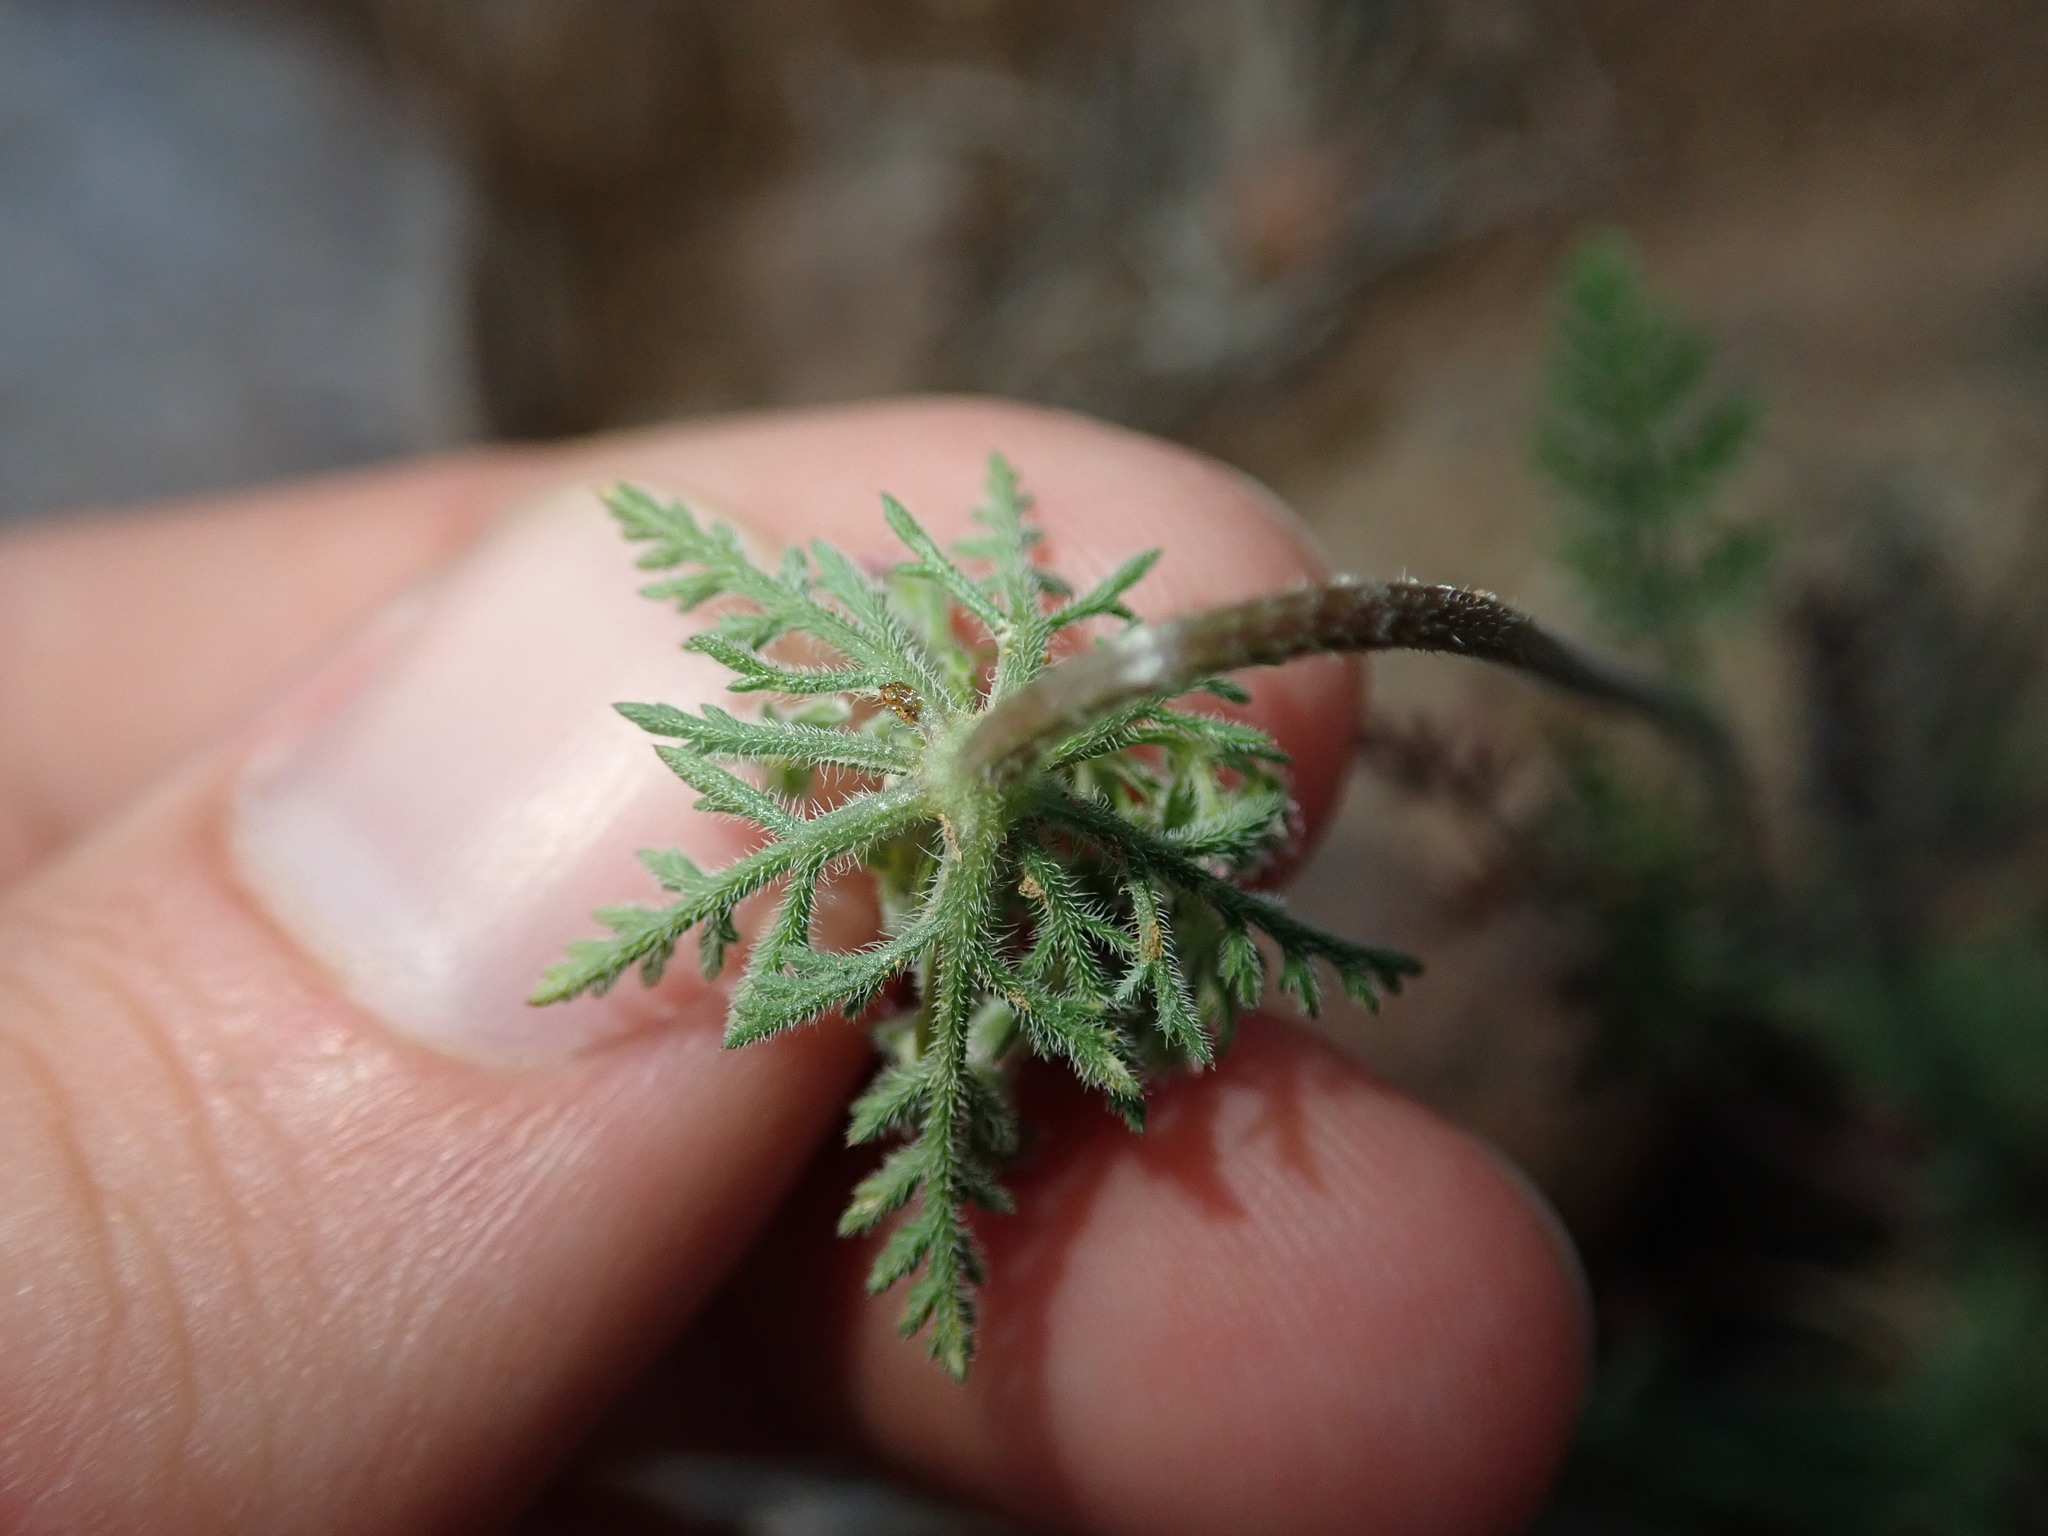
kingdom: Plantae
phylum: Tracheophyta
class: Magnoliopsida
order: Apiales
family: Apiaceae
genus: Daucus
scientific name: Daucus pusillus
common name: Southwest wild carrot
